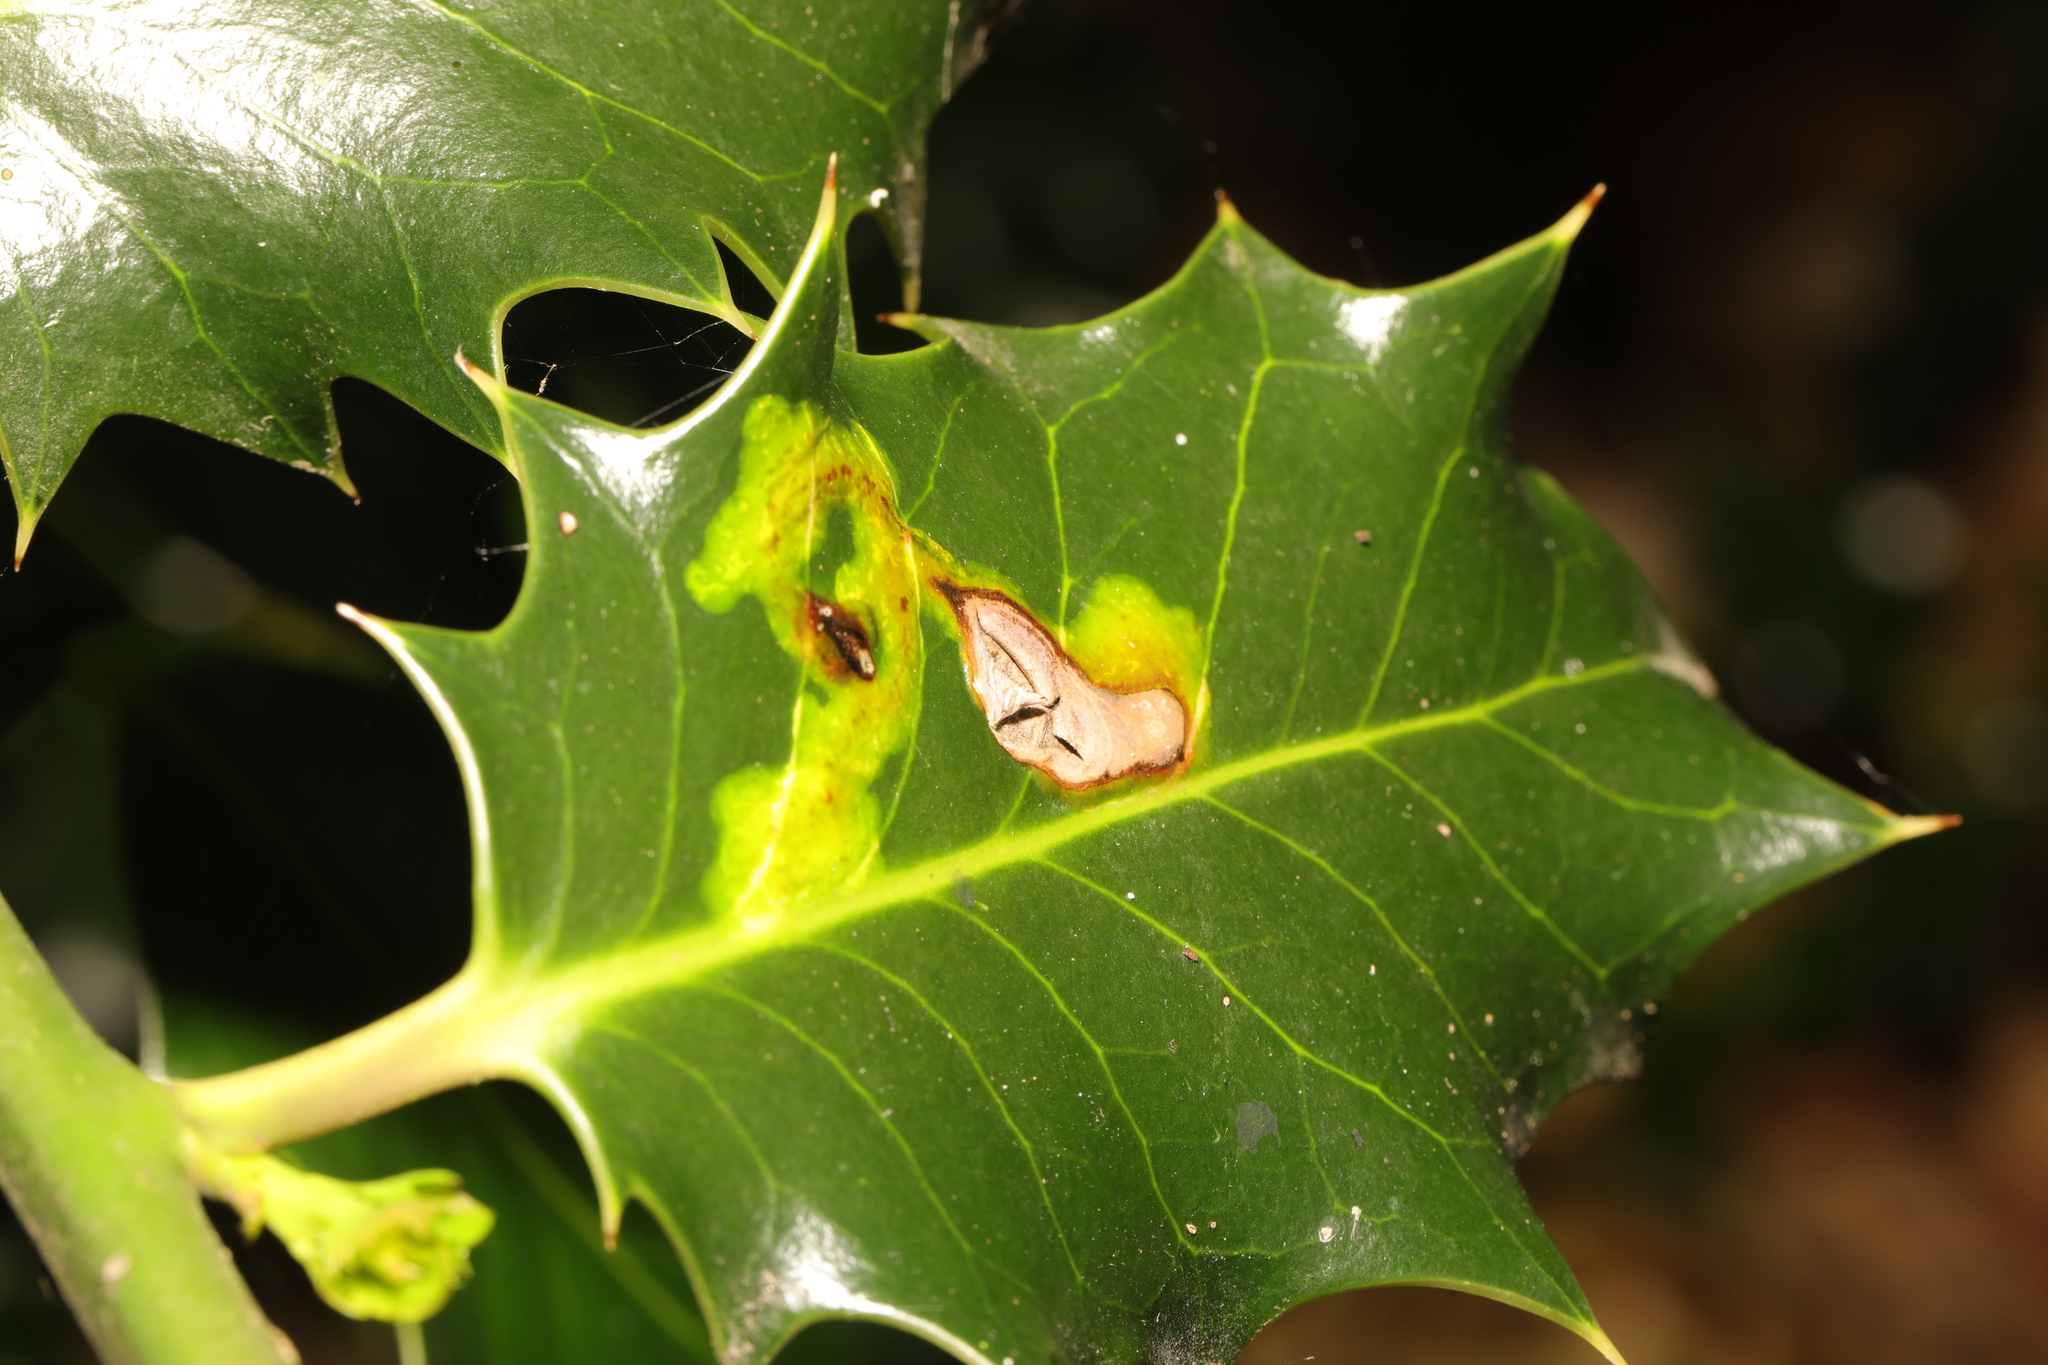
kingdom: Animalia
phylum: Arthropoda
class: Insecta
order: Diptera
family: Agromyzidae
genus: Phytomyza
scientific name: Phytomyza ilicis
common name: Holly leafminer
